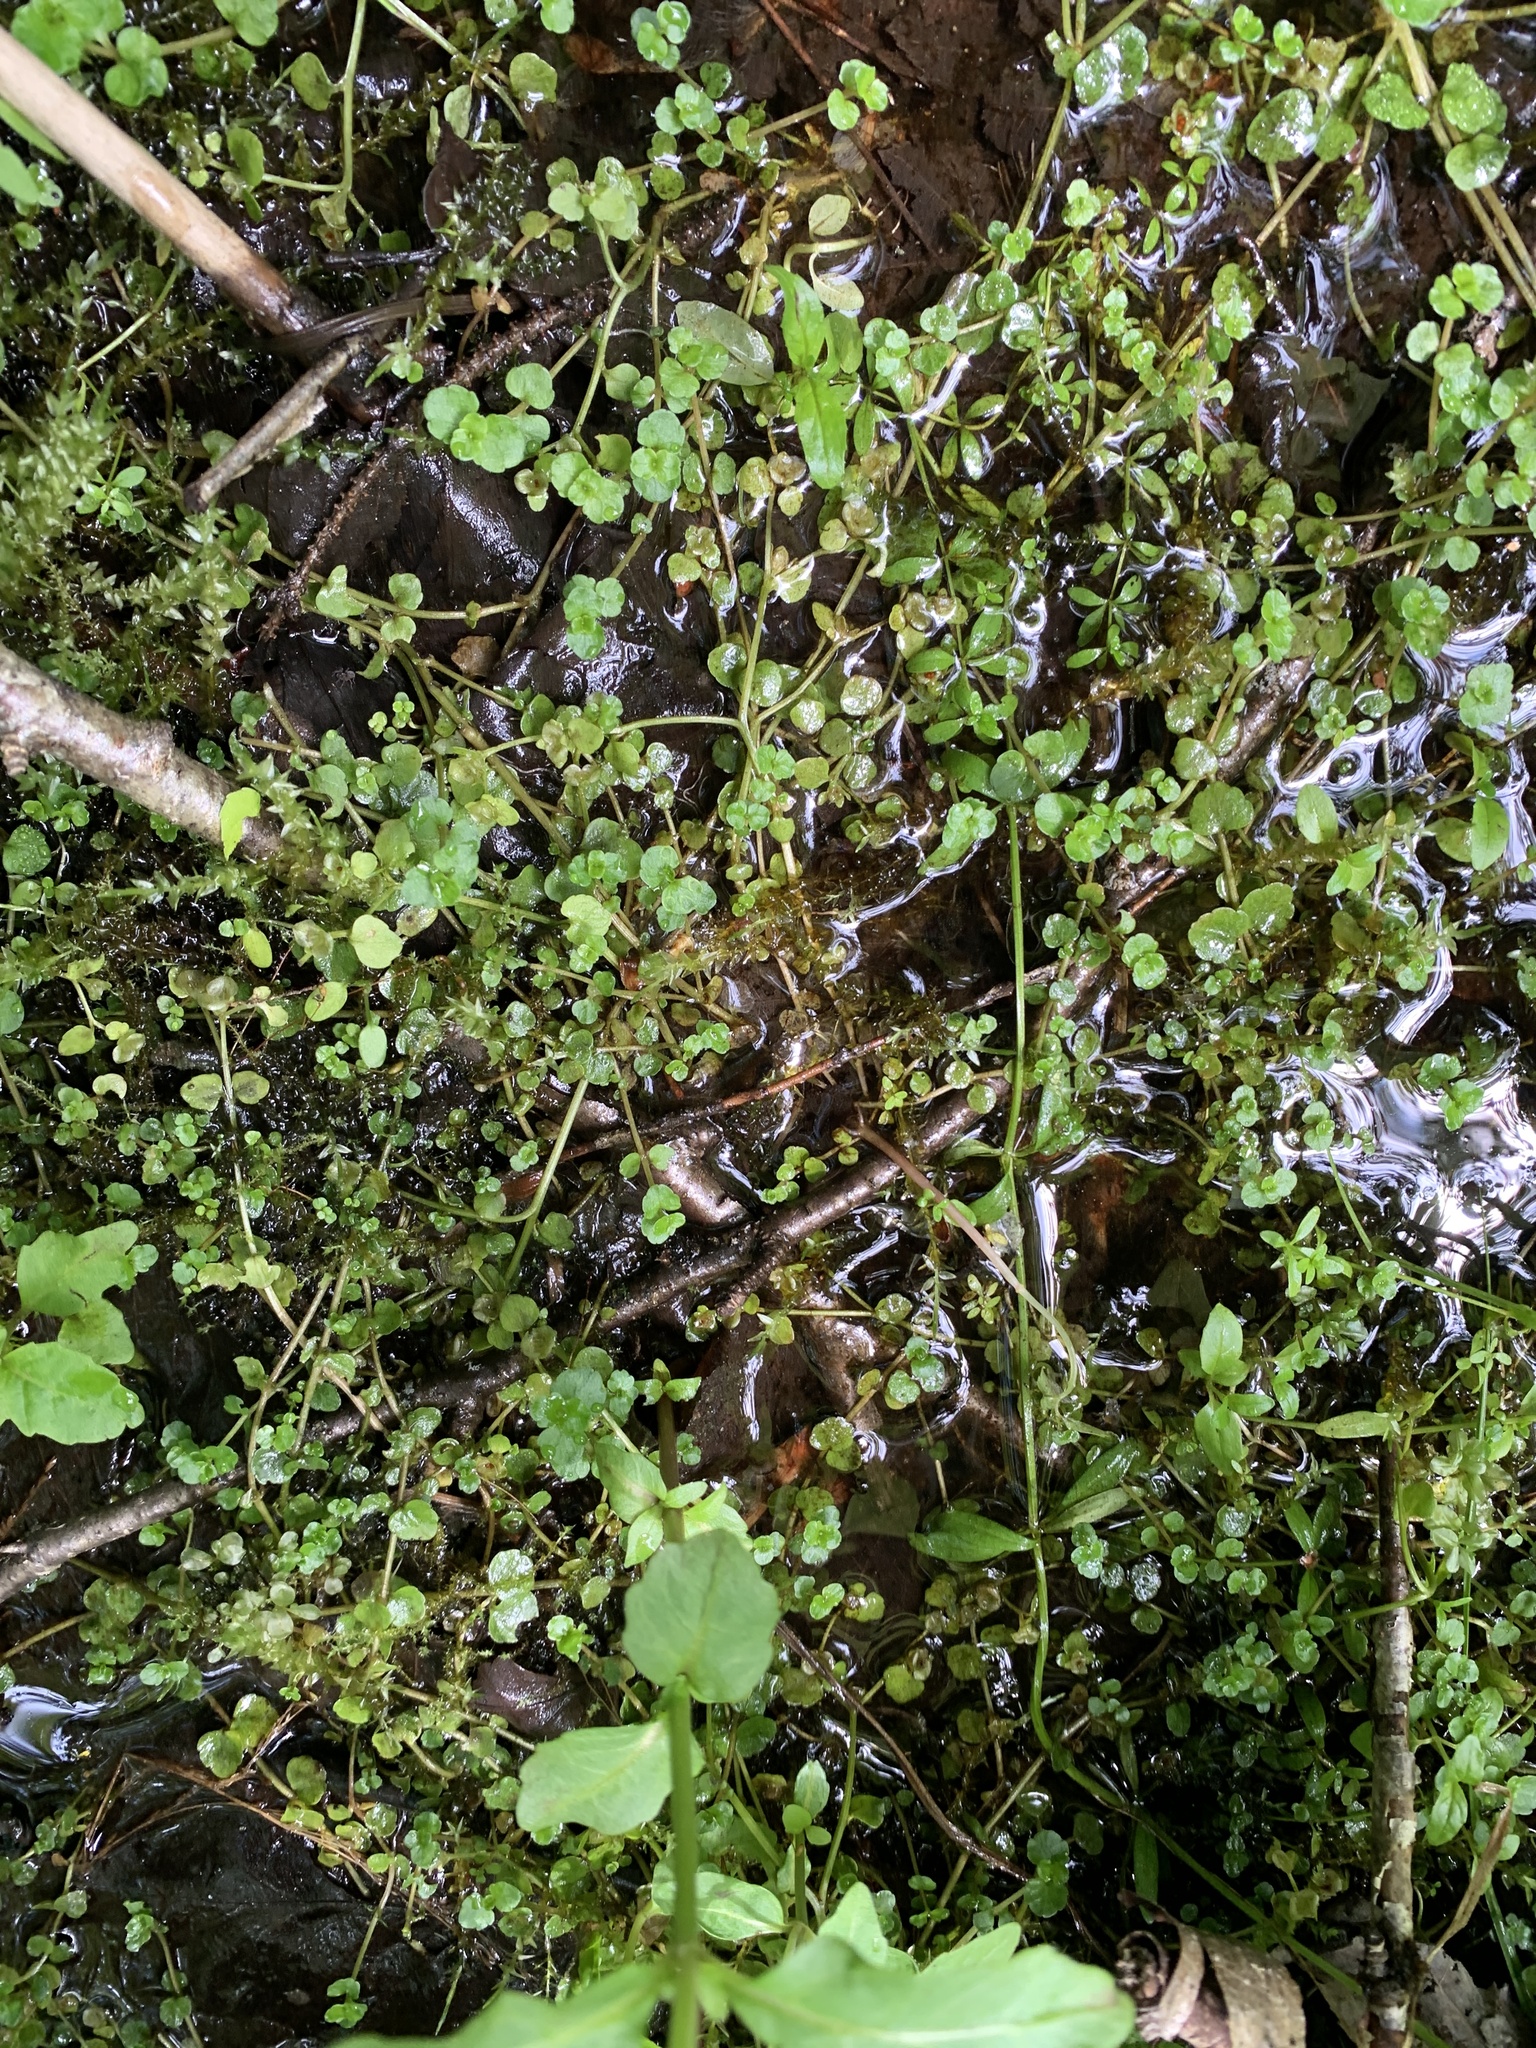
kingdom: Plantae
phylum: Tracheophyta
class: Magnoliopsida
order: Saxifragales
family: Saxifragaceae
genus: Chrysosplenium
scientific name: Chrysosplenium americanum
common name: American golden-saxifrage
